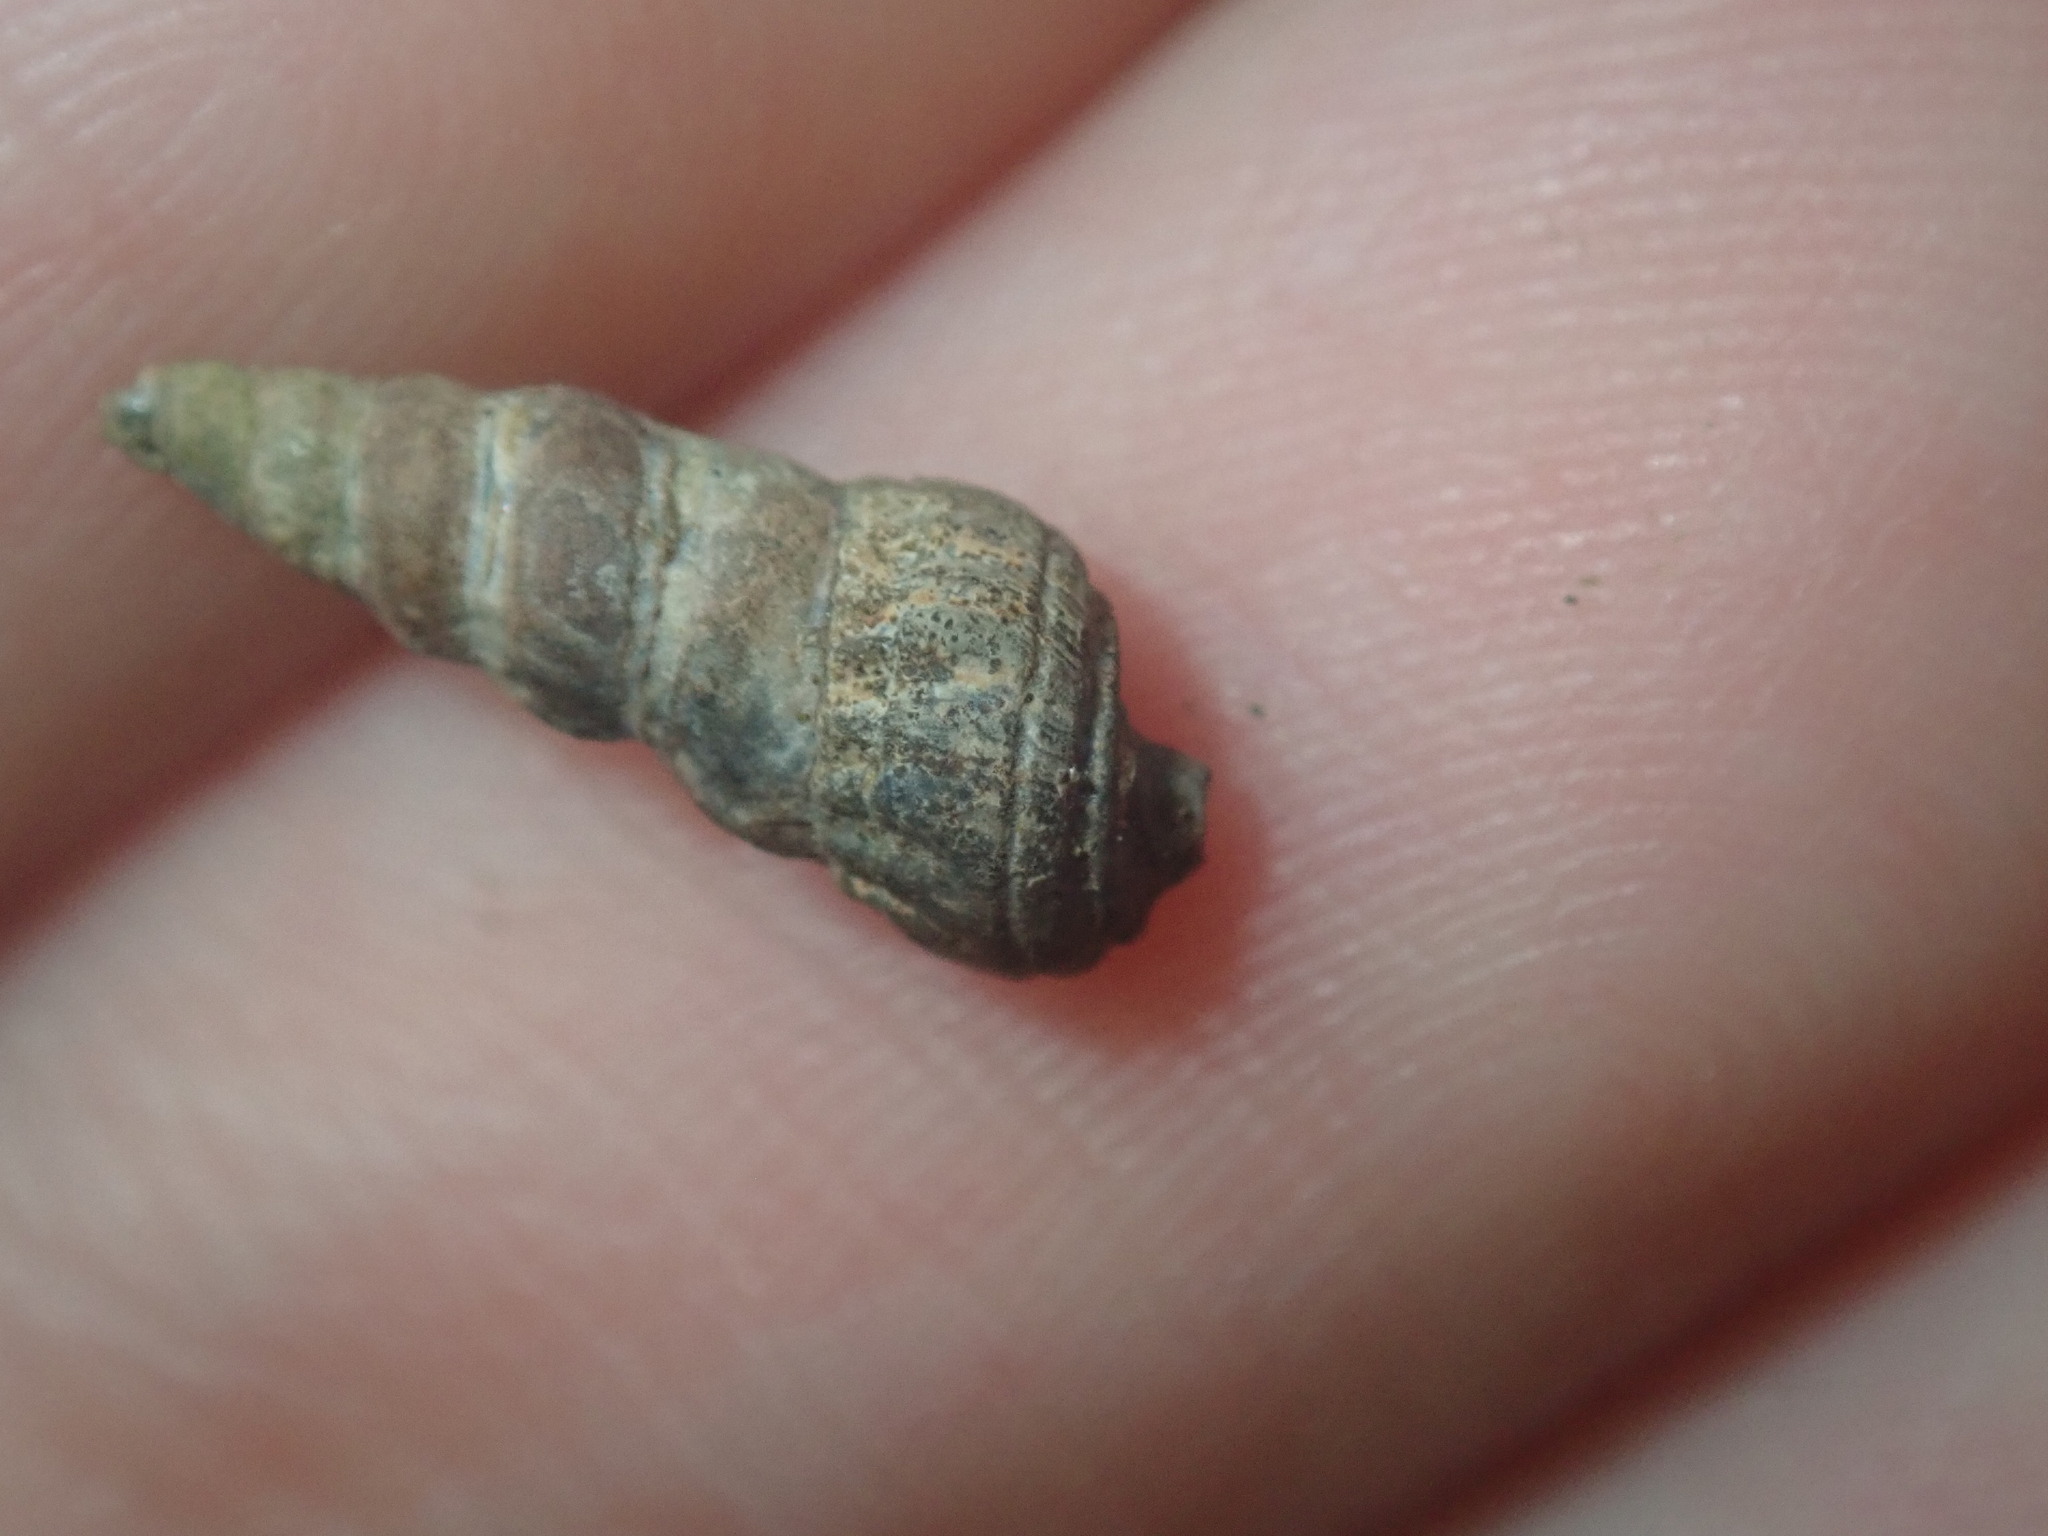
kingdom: Animalia
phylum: Mollusca
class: Gastropoda
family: Batillariidae
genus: Zeacumantus
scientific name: Zeacumantus subcarinatus
